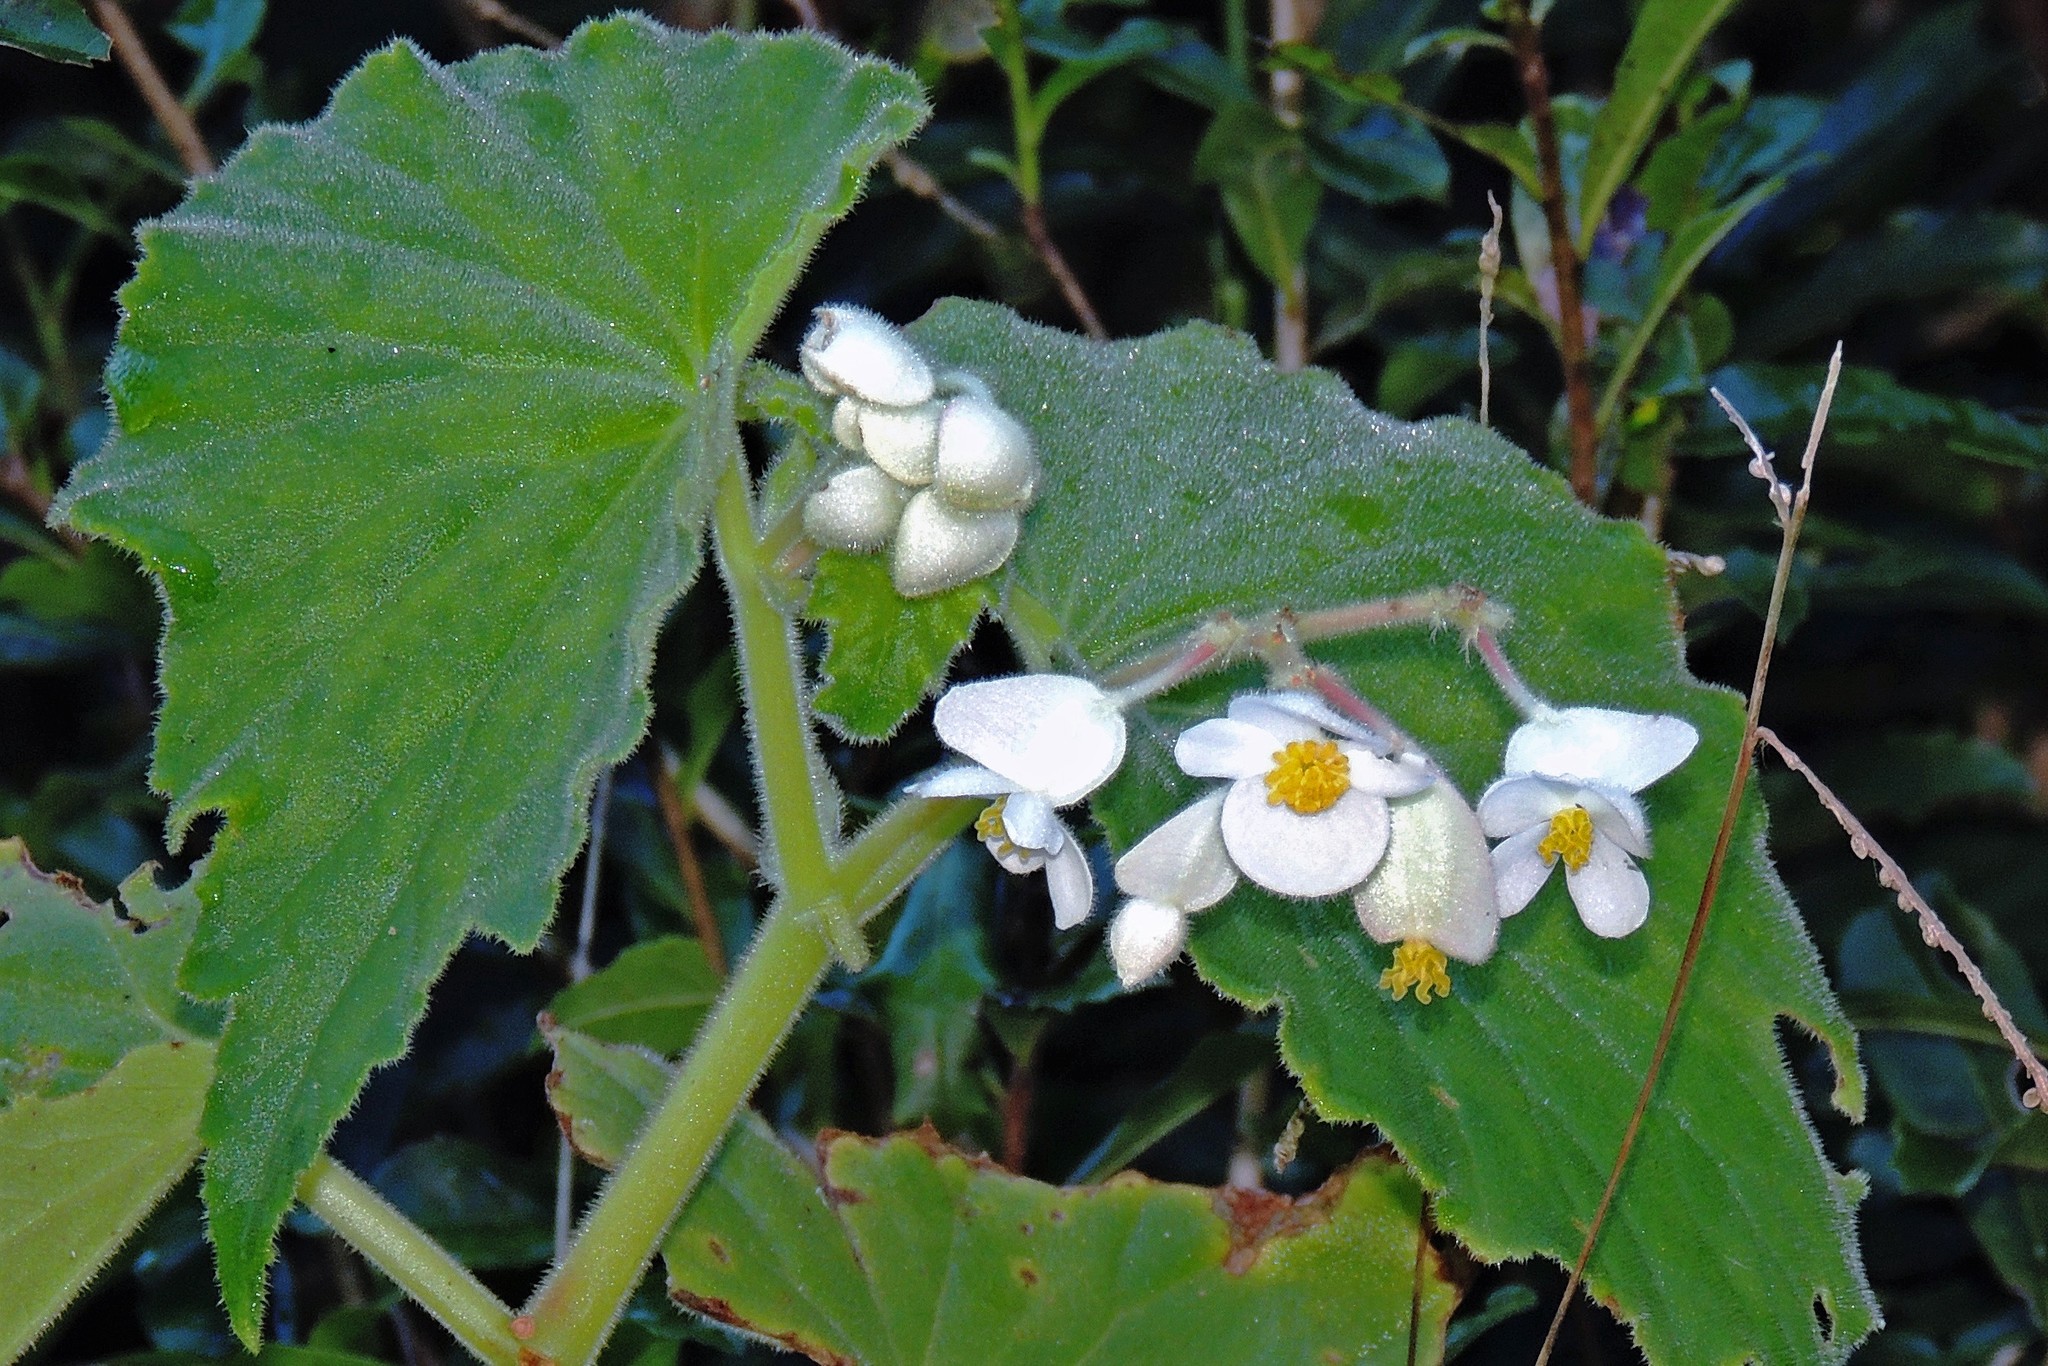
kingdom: Plantae
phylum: Tracheophyta
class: Magnoliopsida
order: Cucurbitales
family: Begoniaceae
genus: Begonia
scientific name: Begonia perdusenii
